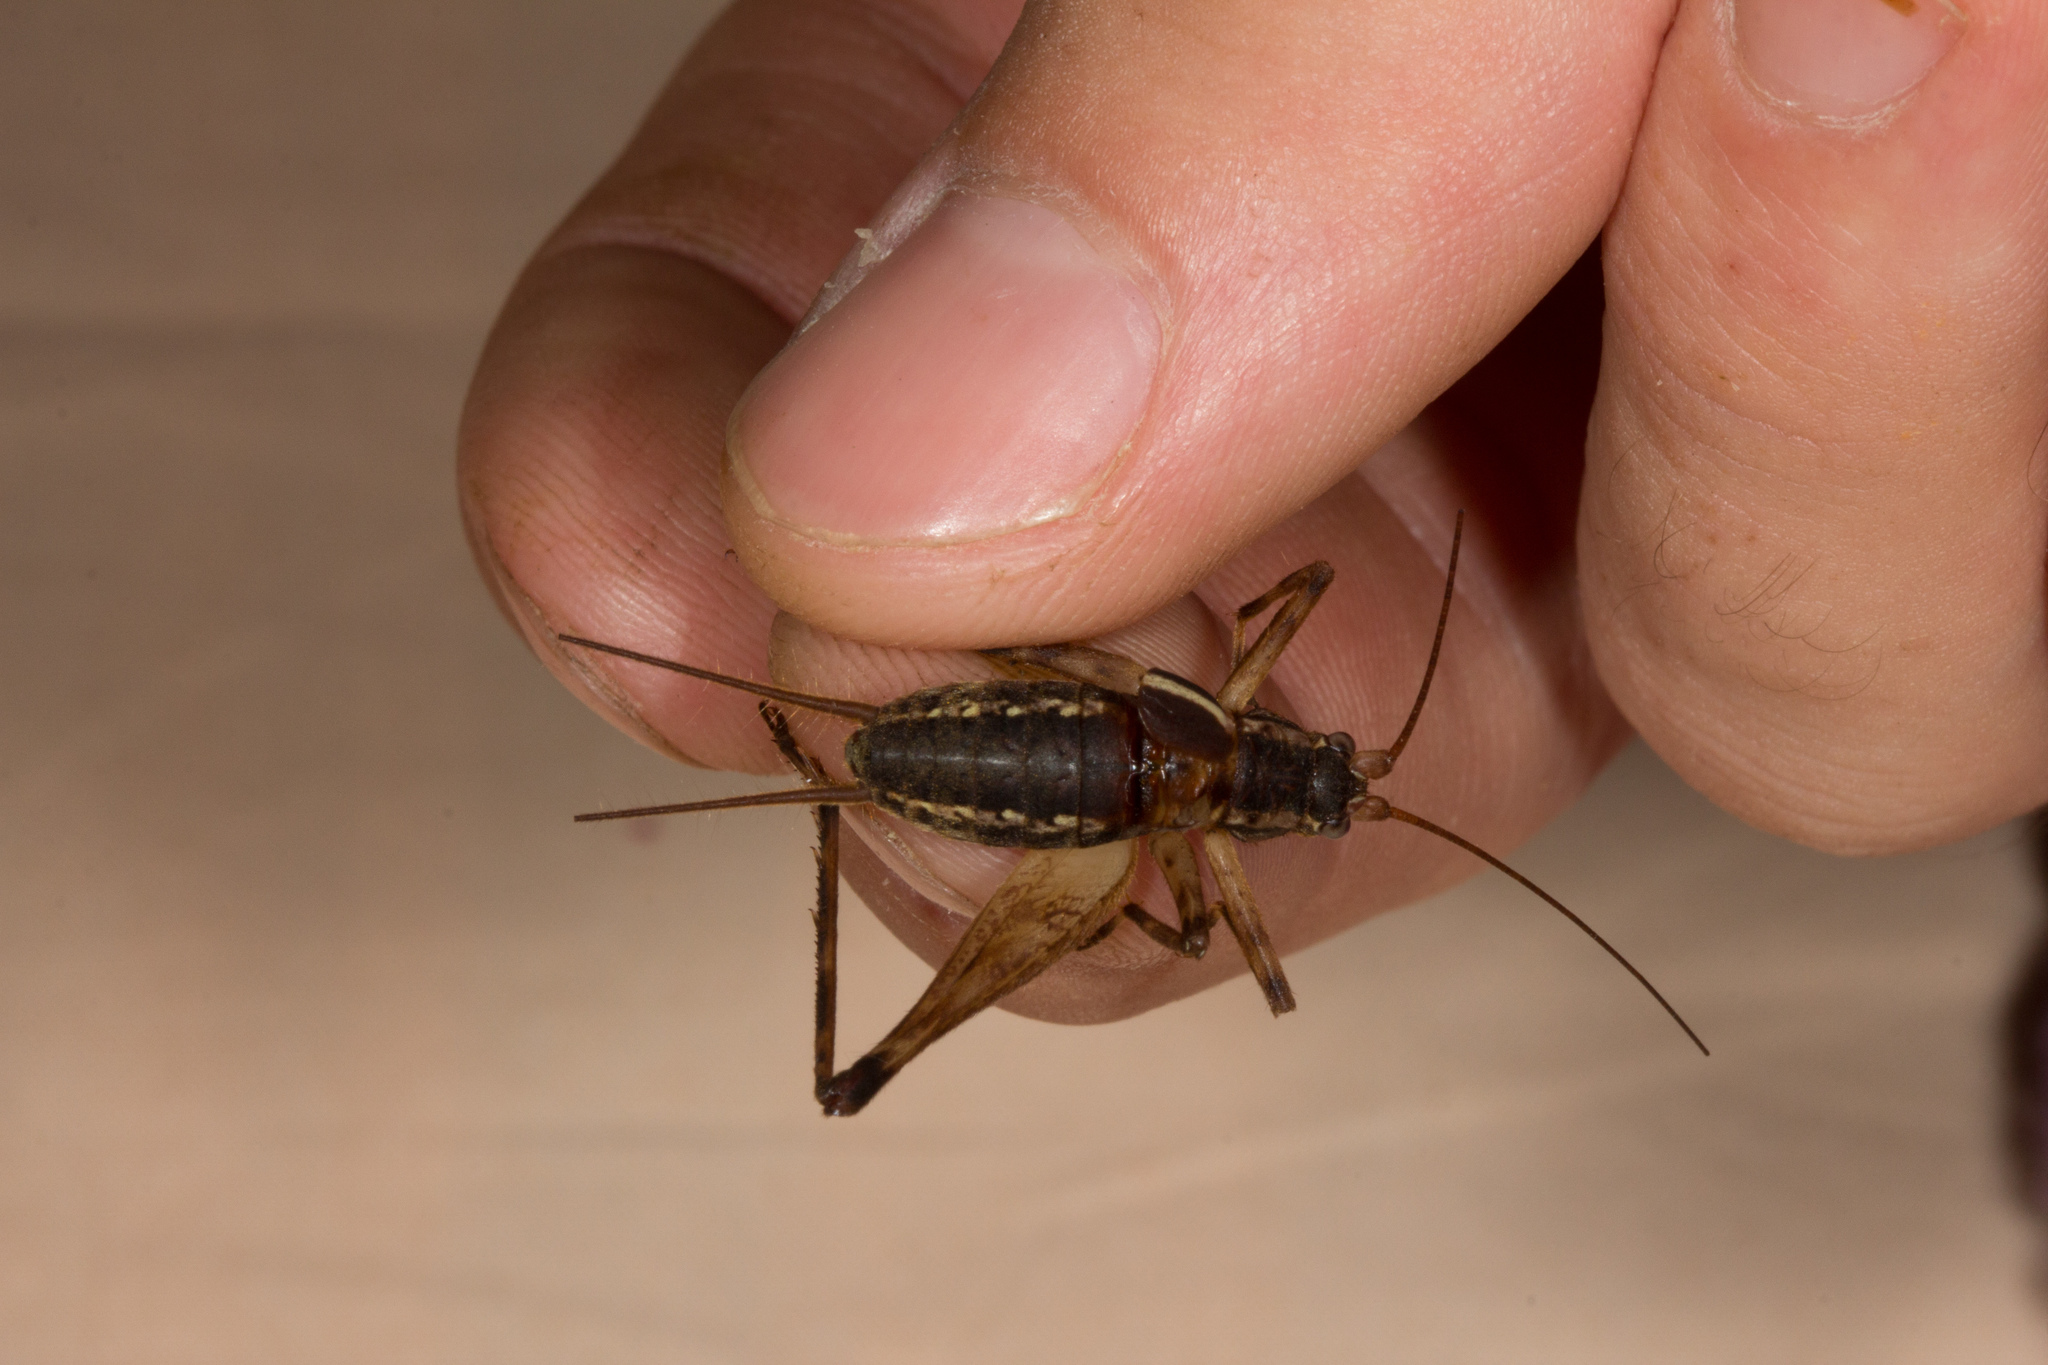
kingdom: Animalia
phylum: Arthropoda
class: Insecta
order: Orthoptera
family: Phalangopsidae
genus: Seselia
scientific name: Seselia patellifera
